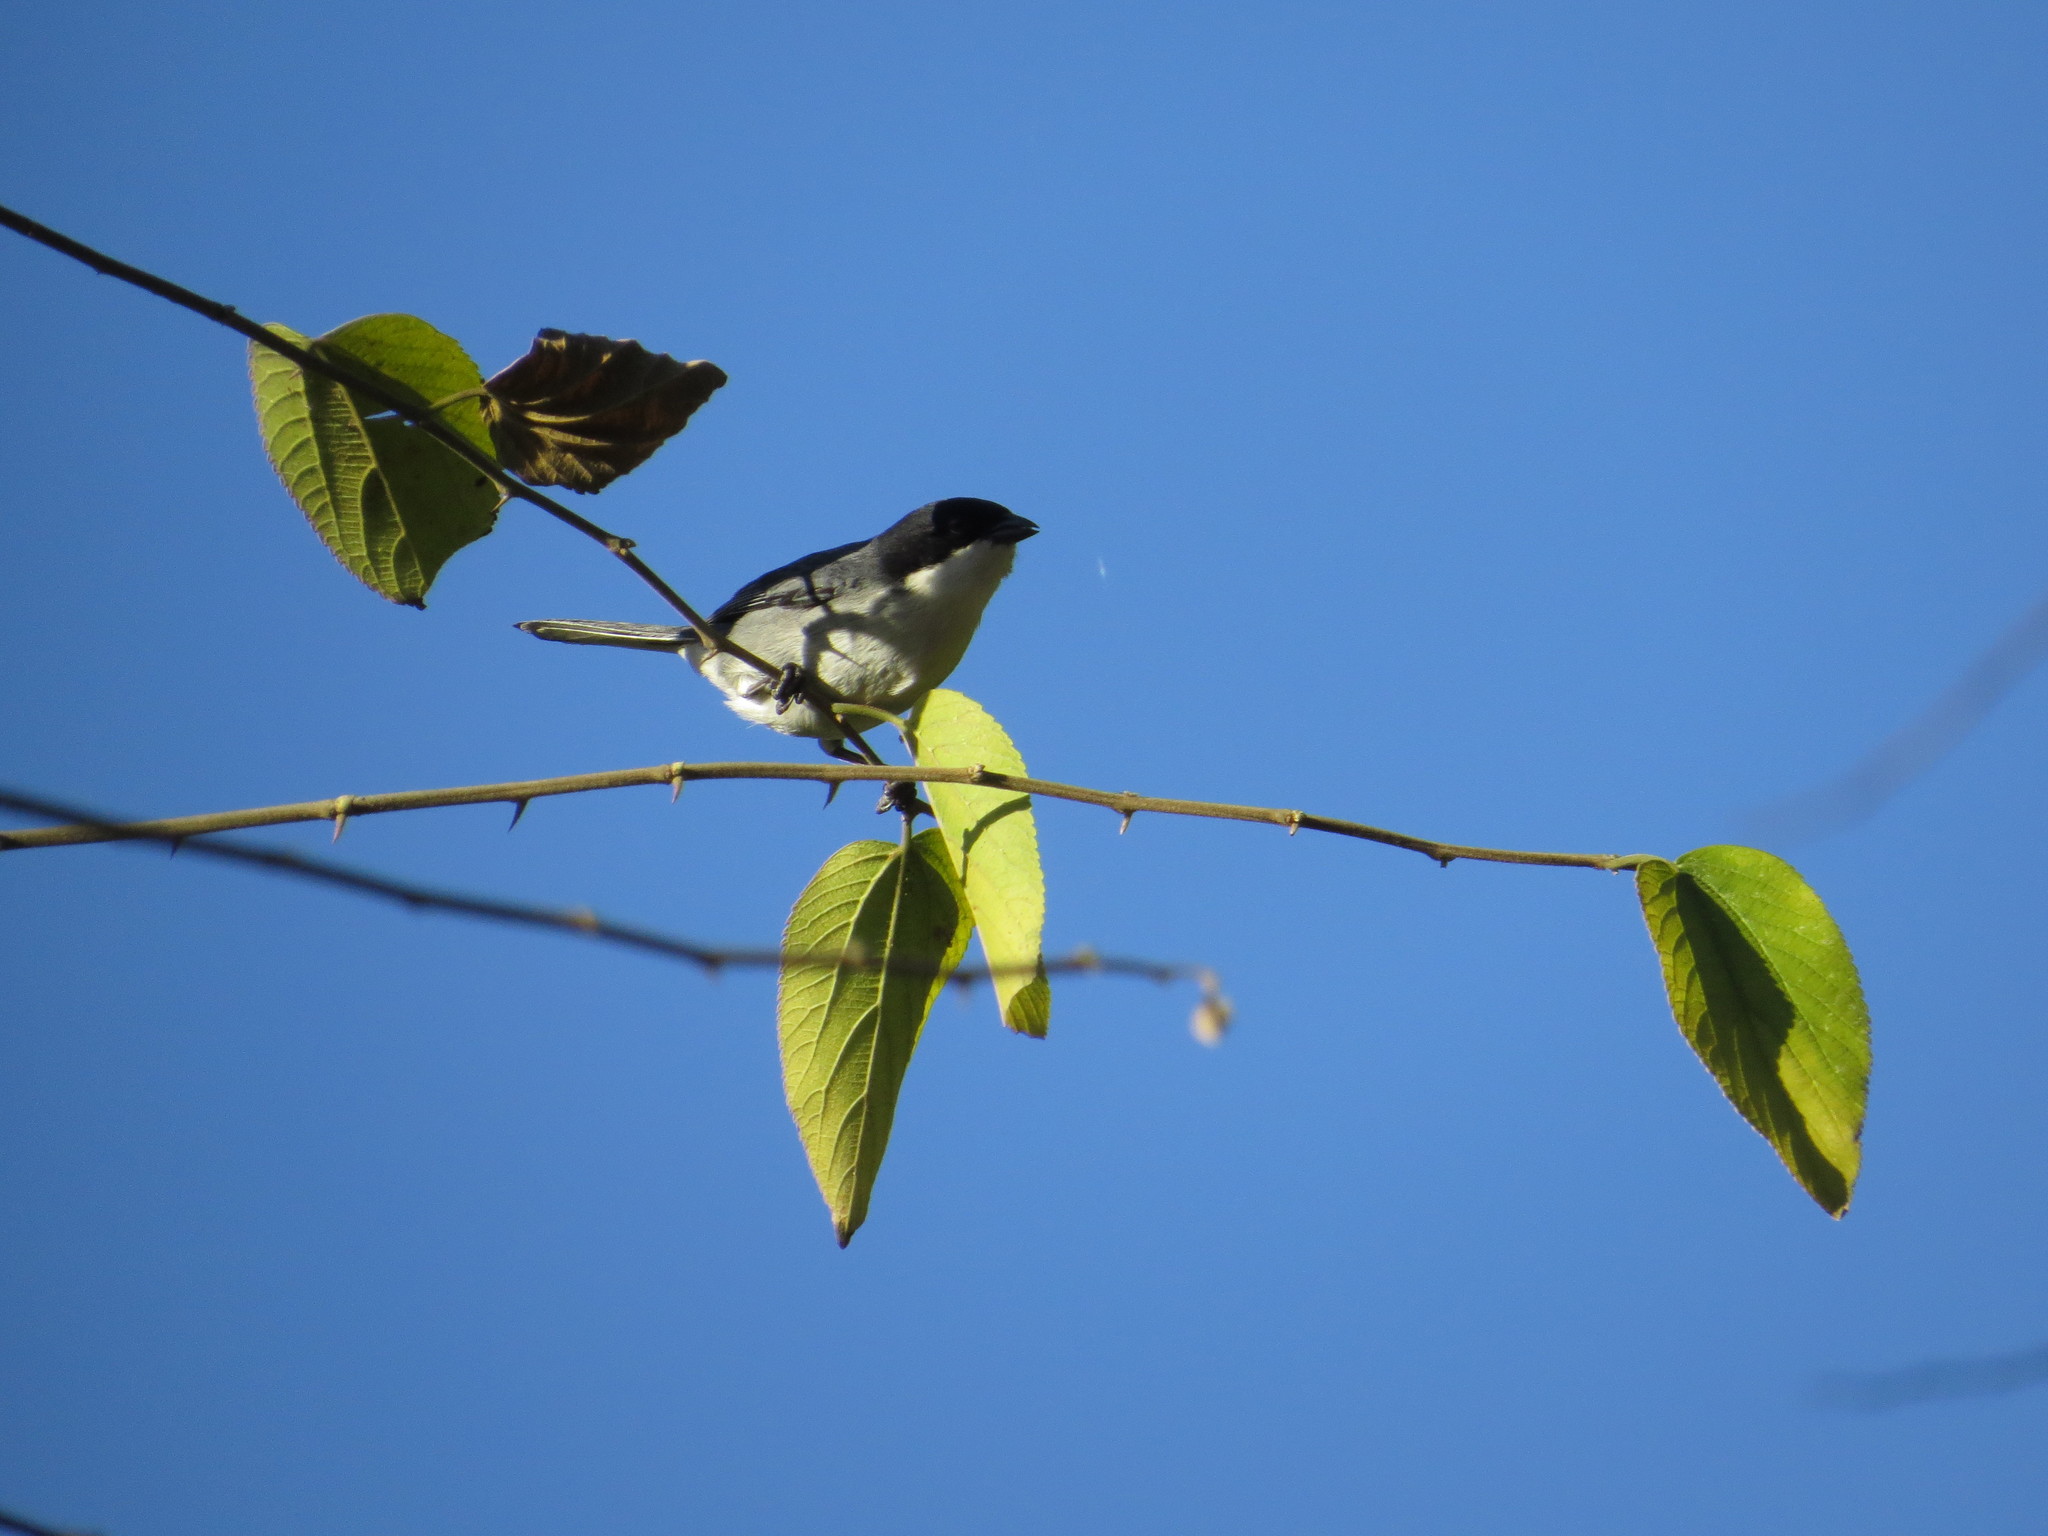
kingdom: Animalia
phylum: Chordata
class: Aves
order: Passeriformes
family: Thraupidae
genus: Microspingus
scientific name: Microspingus melanoleucus
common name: Black-capped warbling-finch
